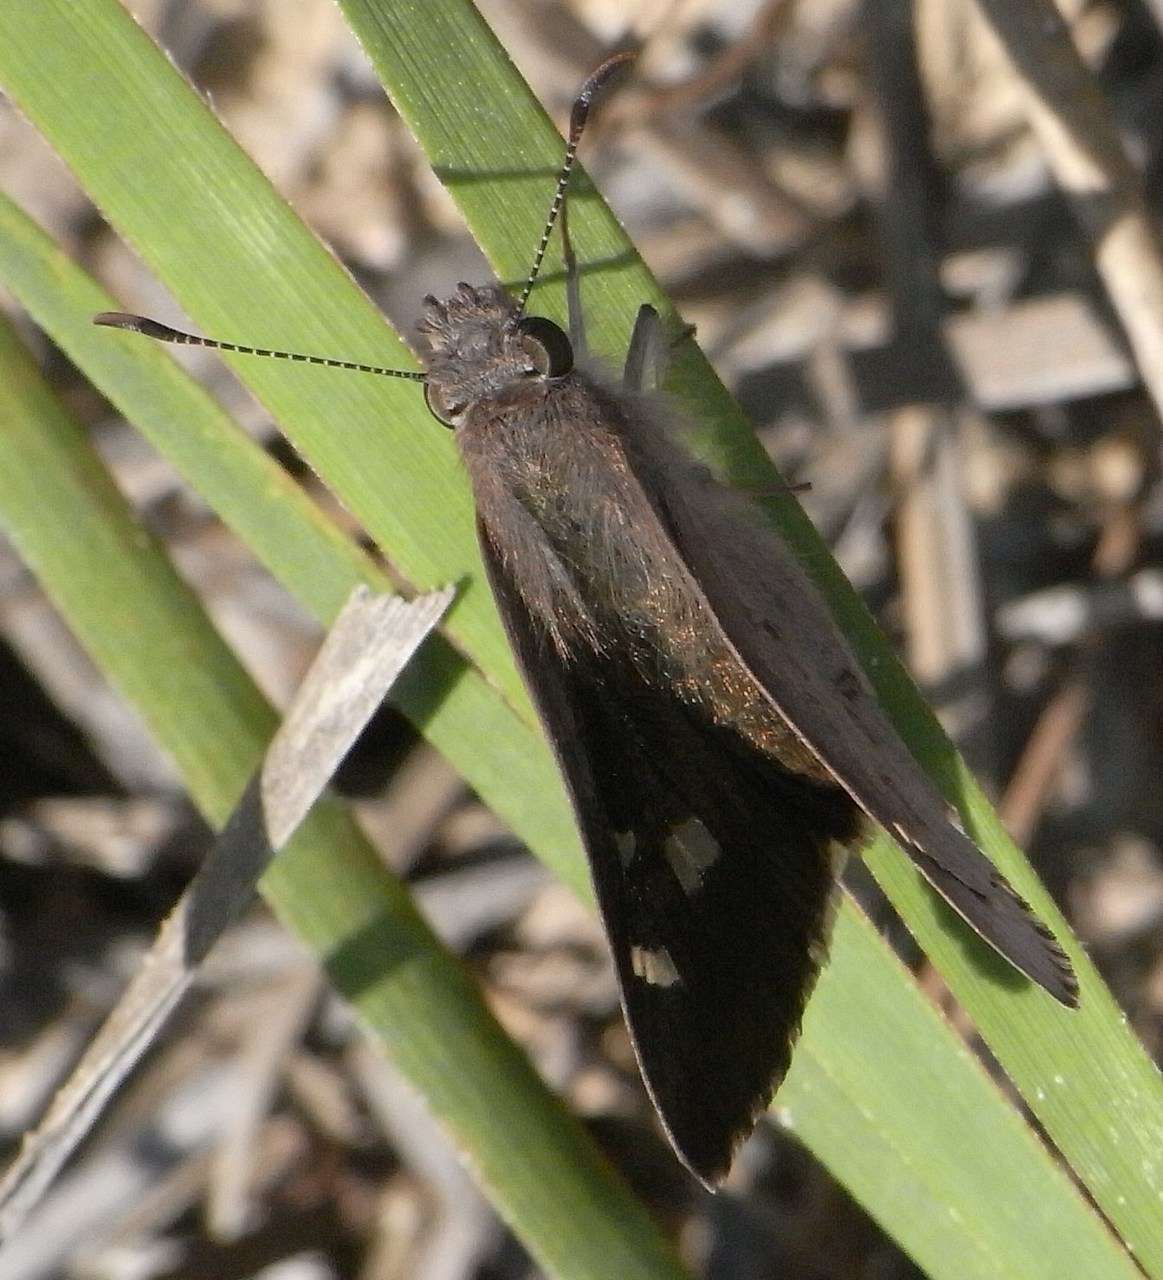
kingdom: Animalia
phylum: Arthropoda
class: Insecta
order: Lepidoptera
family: Hesperiidae
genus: Mesodina
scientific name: Mesodina halyzia
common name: Eastern iris-skipper
